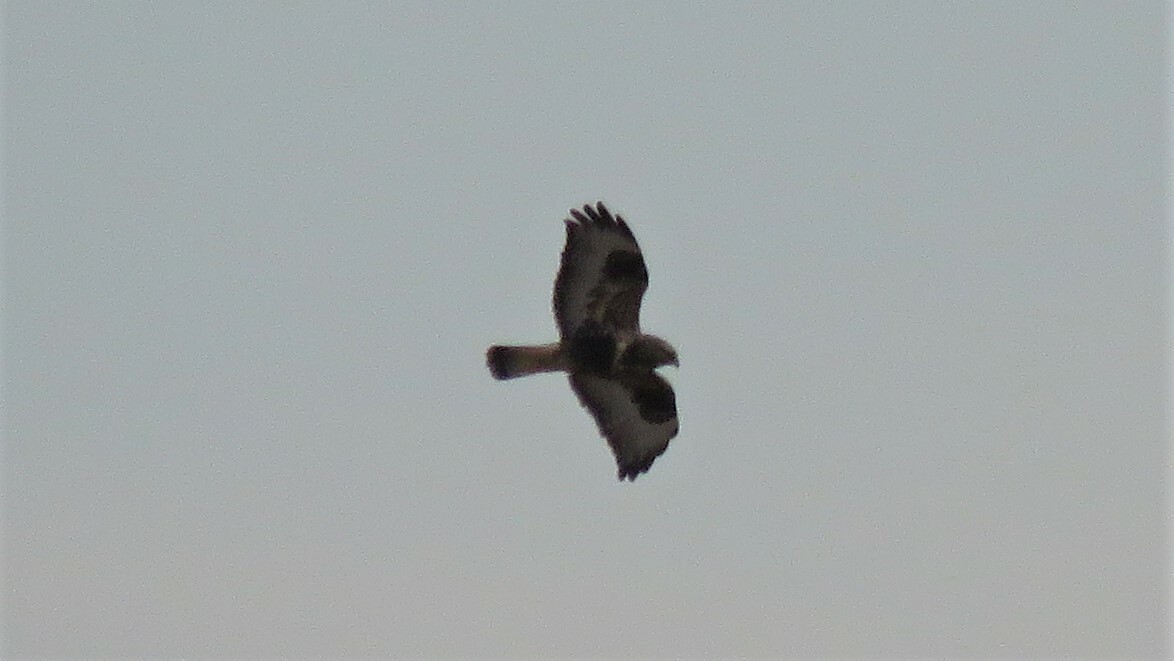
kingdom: Animalia
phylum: Chordata
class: Aves
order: Accipitriformes
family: Accipitridae
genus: Buteo
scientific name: Buteo lagopus
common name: Rough-legged buzzard
